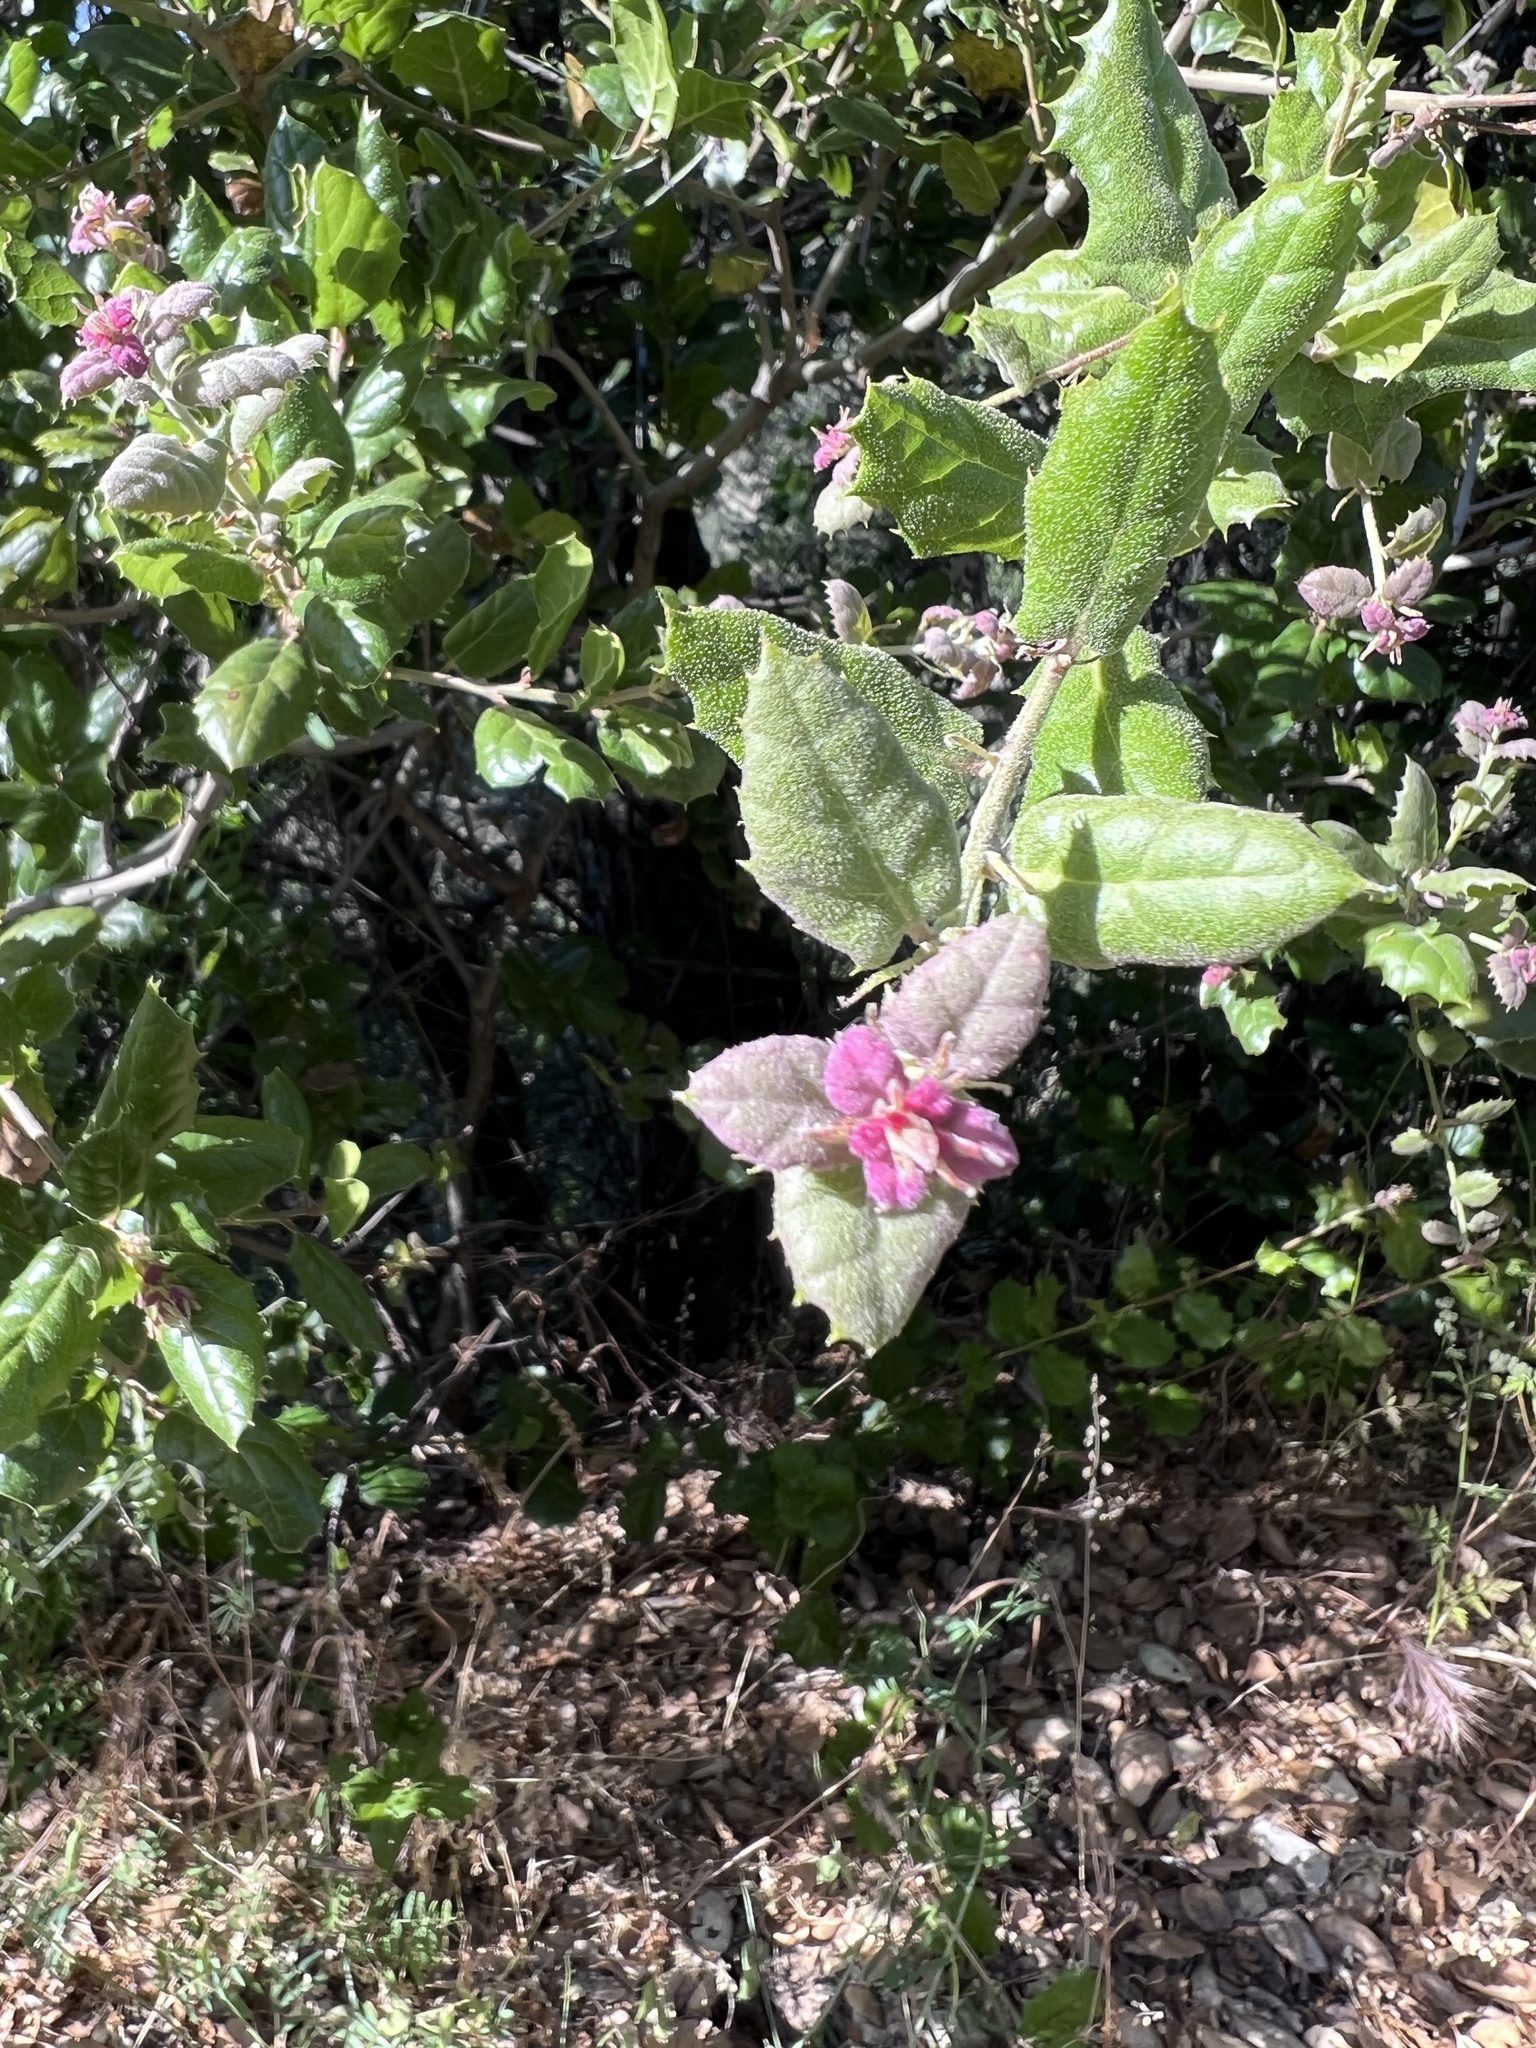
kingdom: Plantae
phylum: Tracheophyta
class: Magnoliopsida
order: Fagales
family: Fagaceae
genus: Quercus
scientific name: Quercus agrifolia
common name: California live oak
